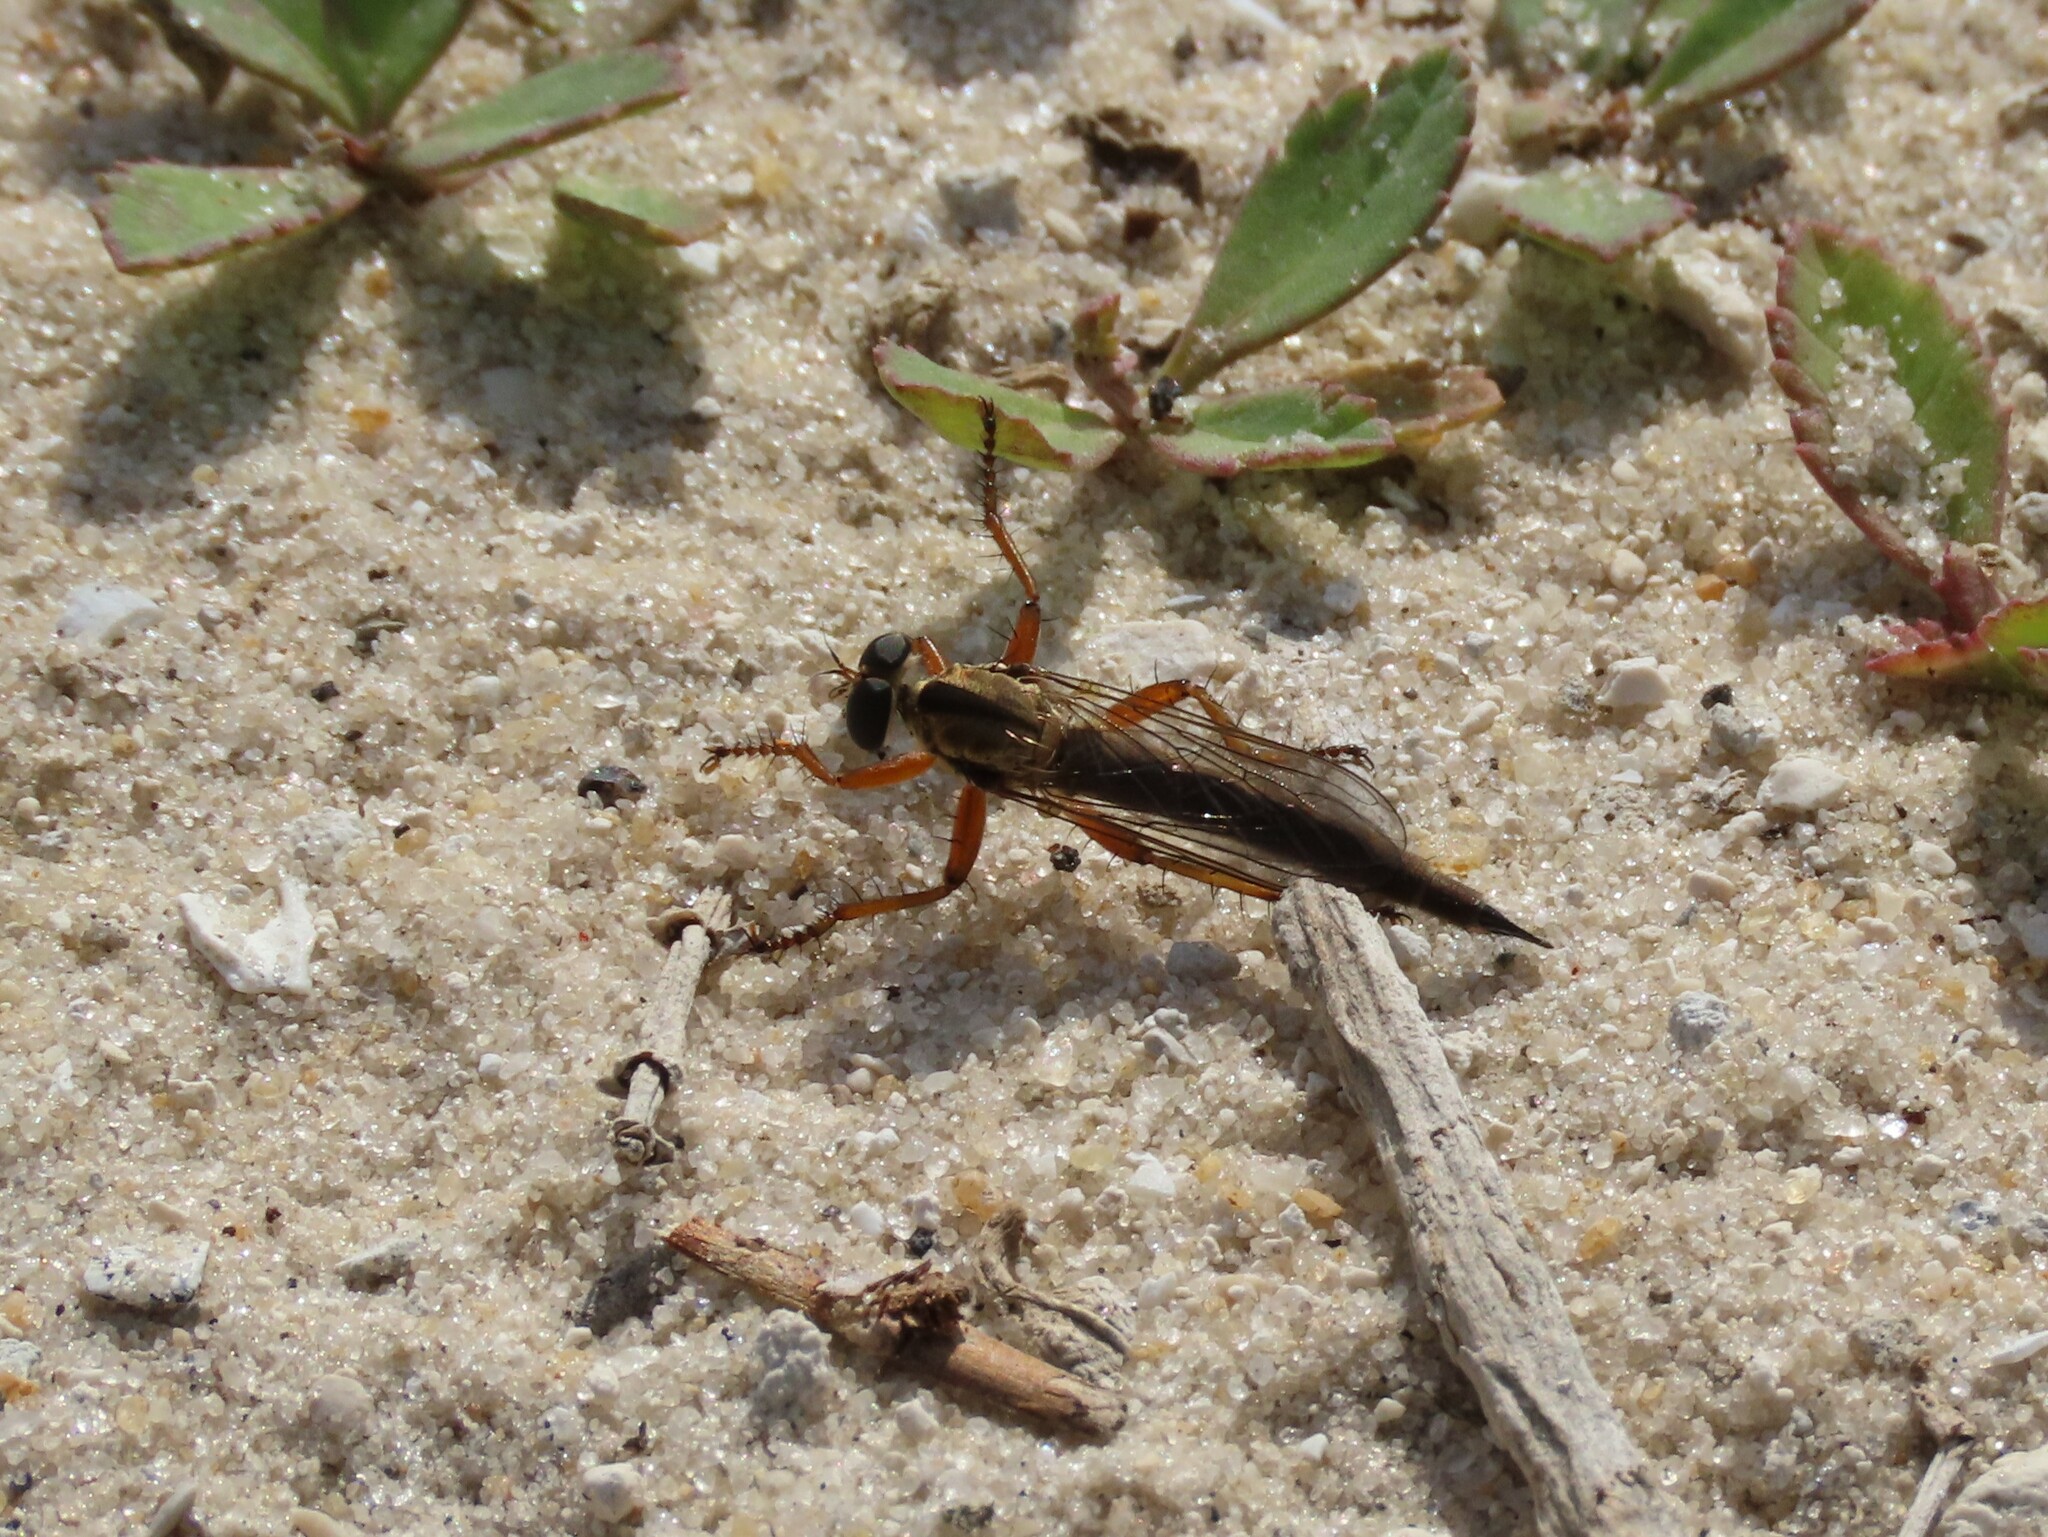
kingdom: Animalia
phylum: Arthropoda
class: Insecta
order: Diptera
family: Asilidae
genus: Polacantha
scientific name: Polacantha gracilis
